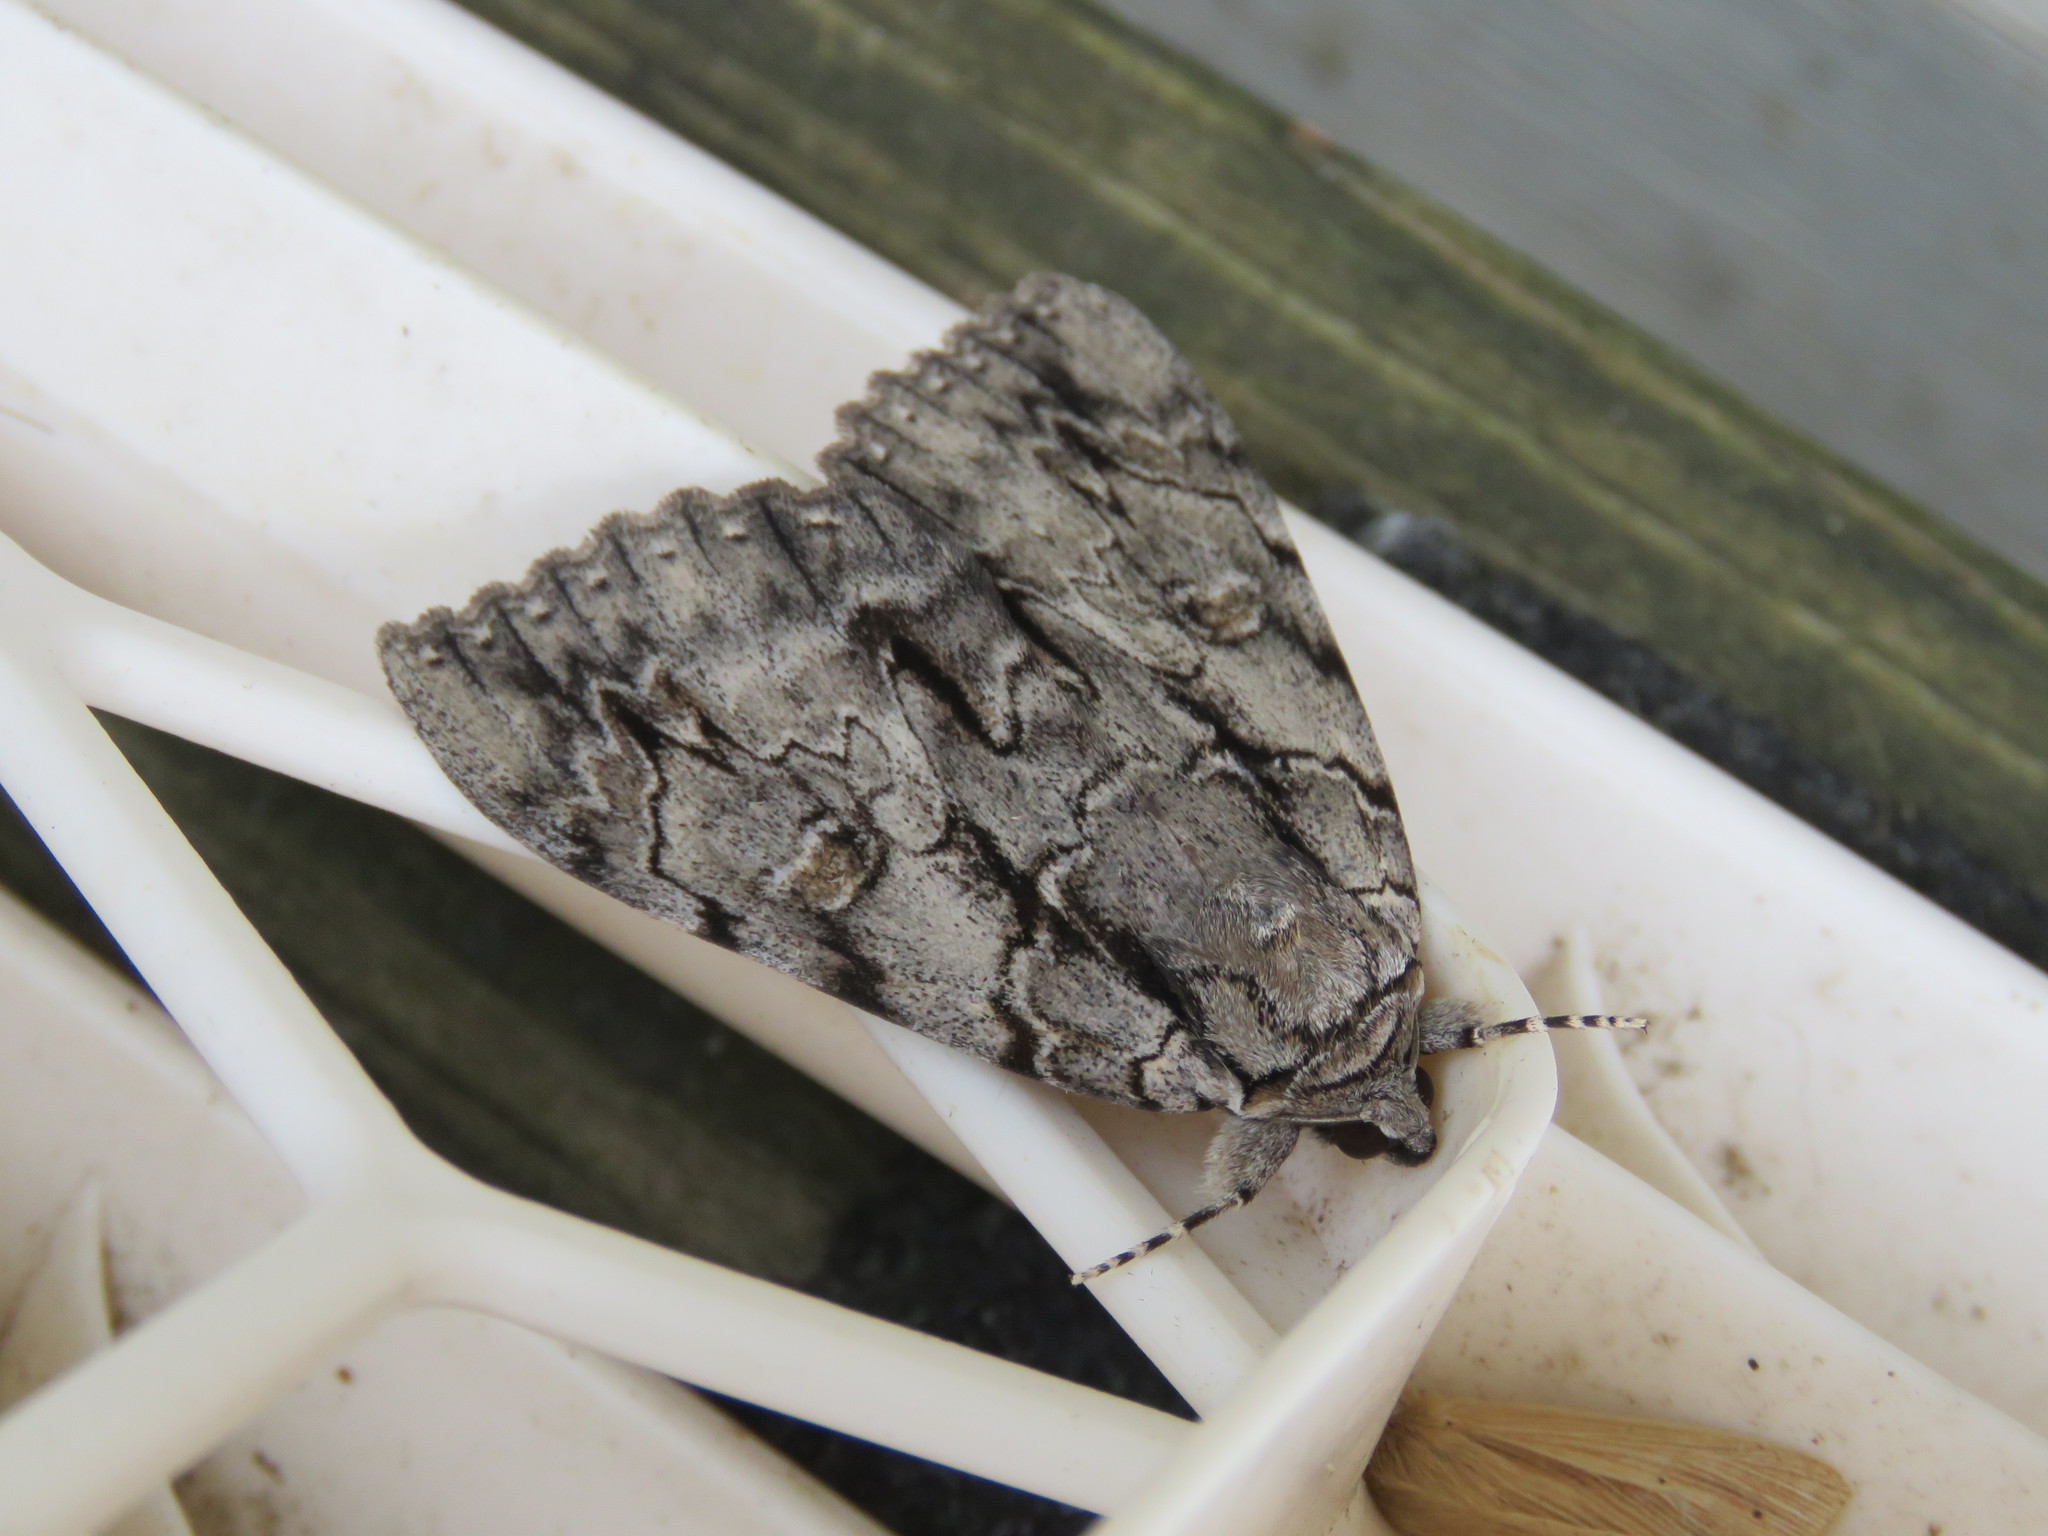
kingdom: Animalia
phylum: Arthropoda
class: Insecta
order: Lepidoptera
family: Erebidae
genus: Catocala
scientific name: Catocala retecta
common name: Yellow-gray underwing
